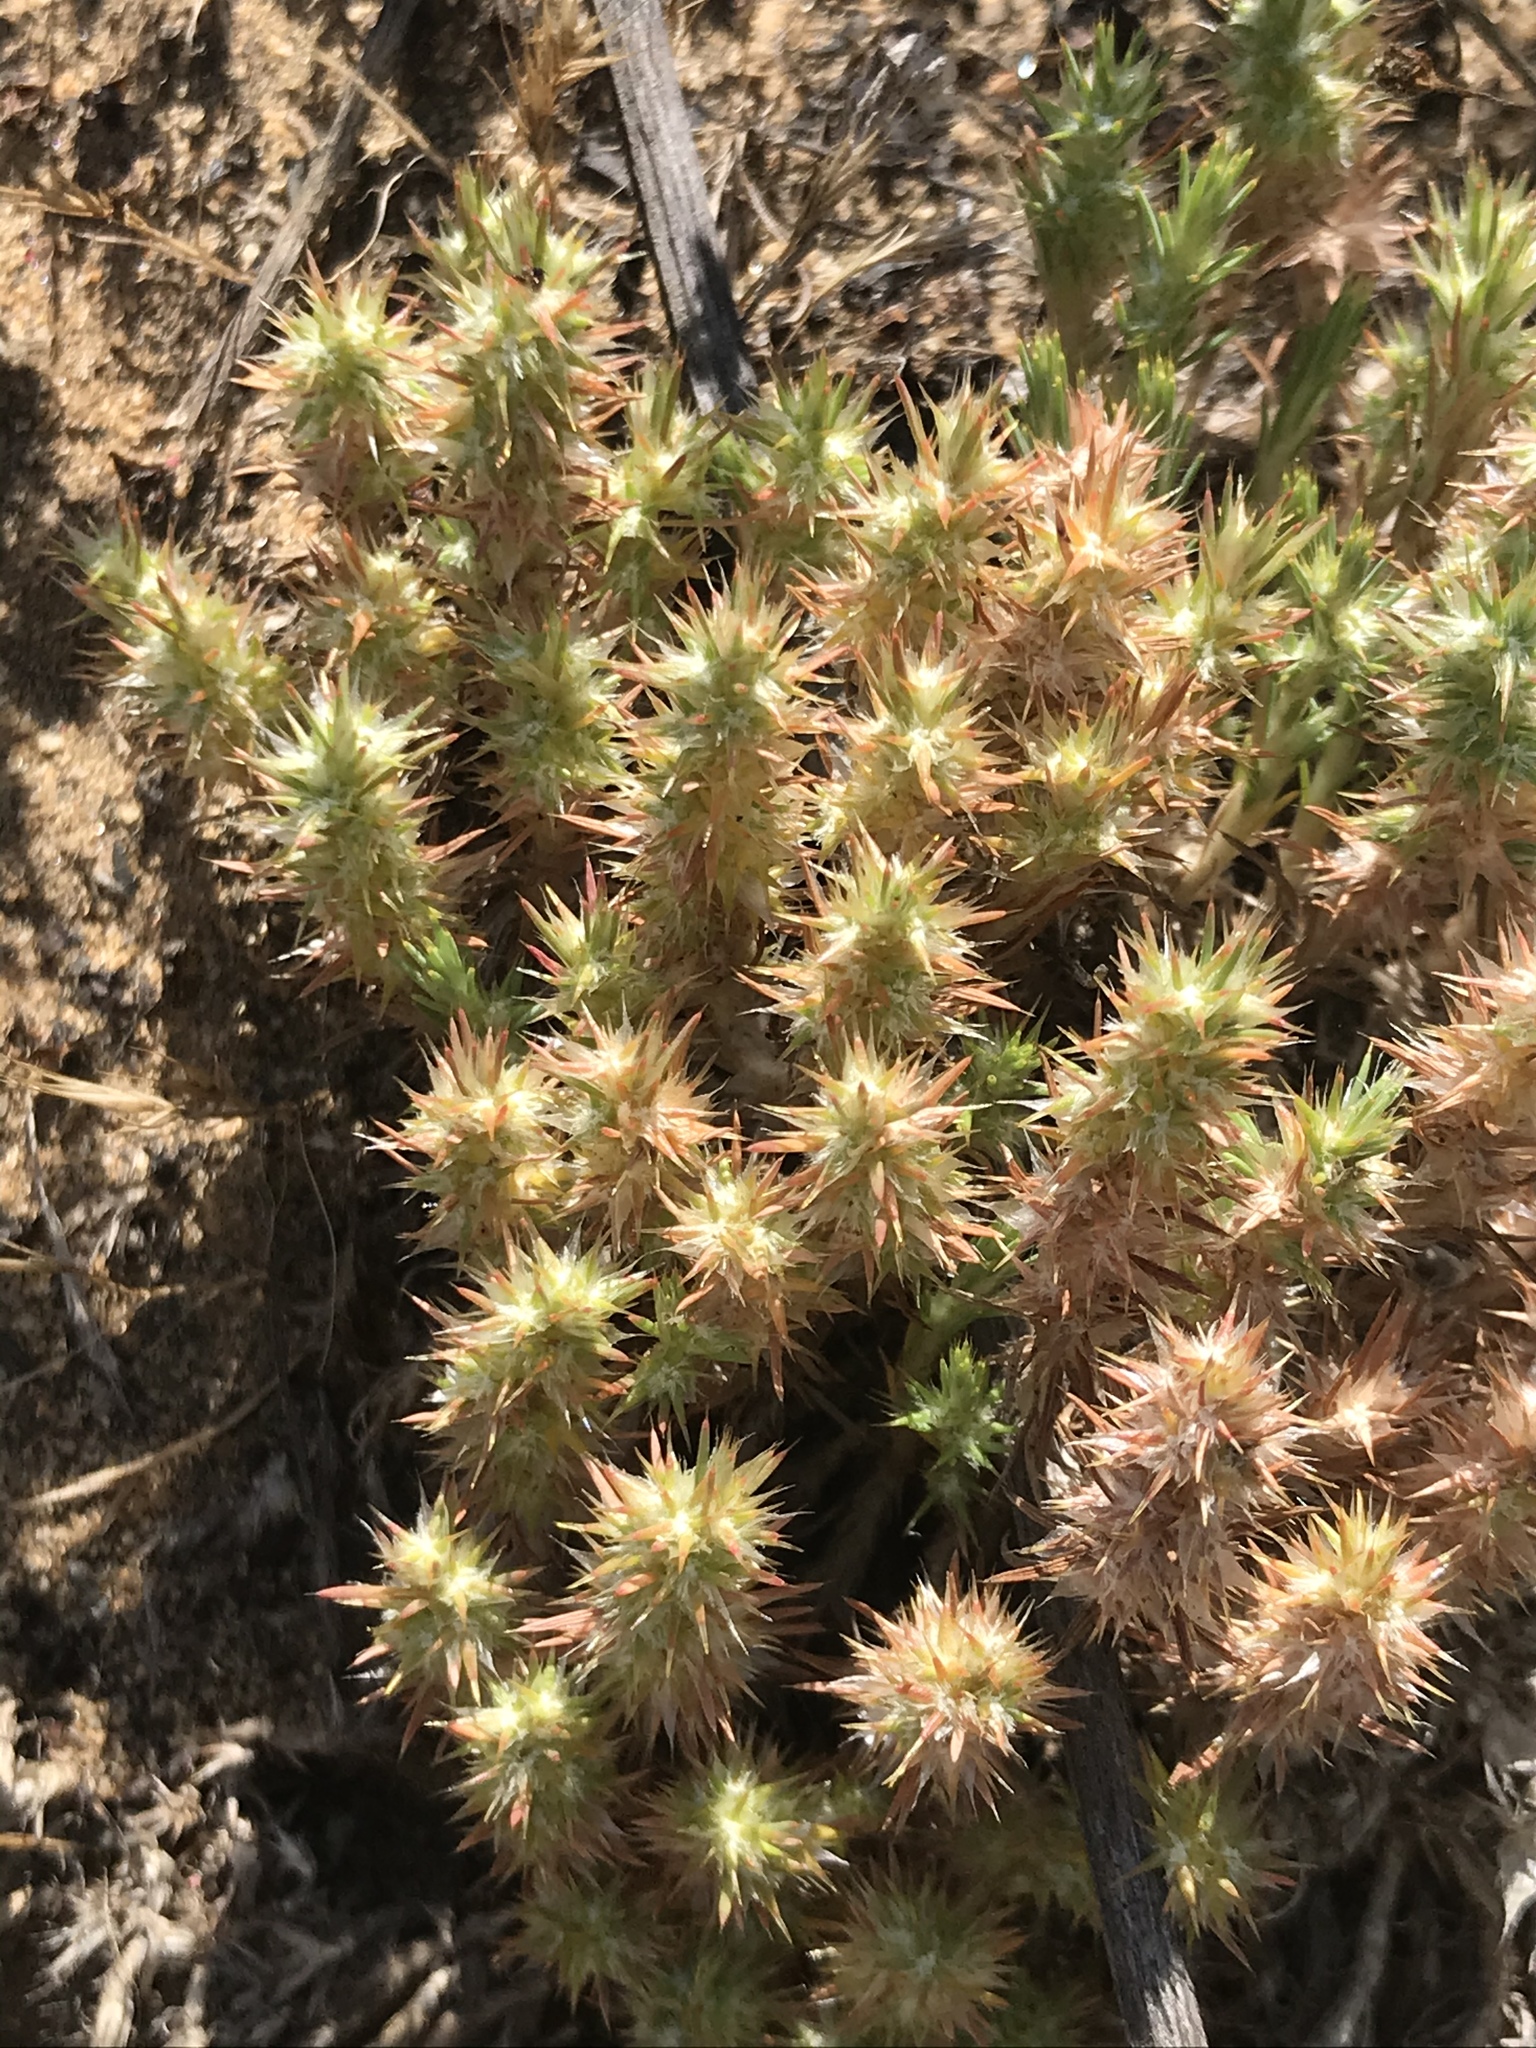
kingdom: Plantae
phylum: Tracheophyta
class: Magnoliopsida
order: Caryophyllales
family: Caryophyllaceae
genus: Cardionema
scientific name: Cardionema ramosissima
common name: Sandcarpet
